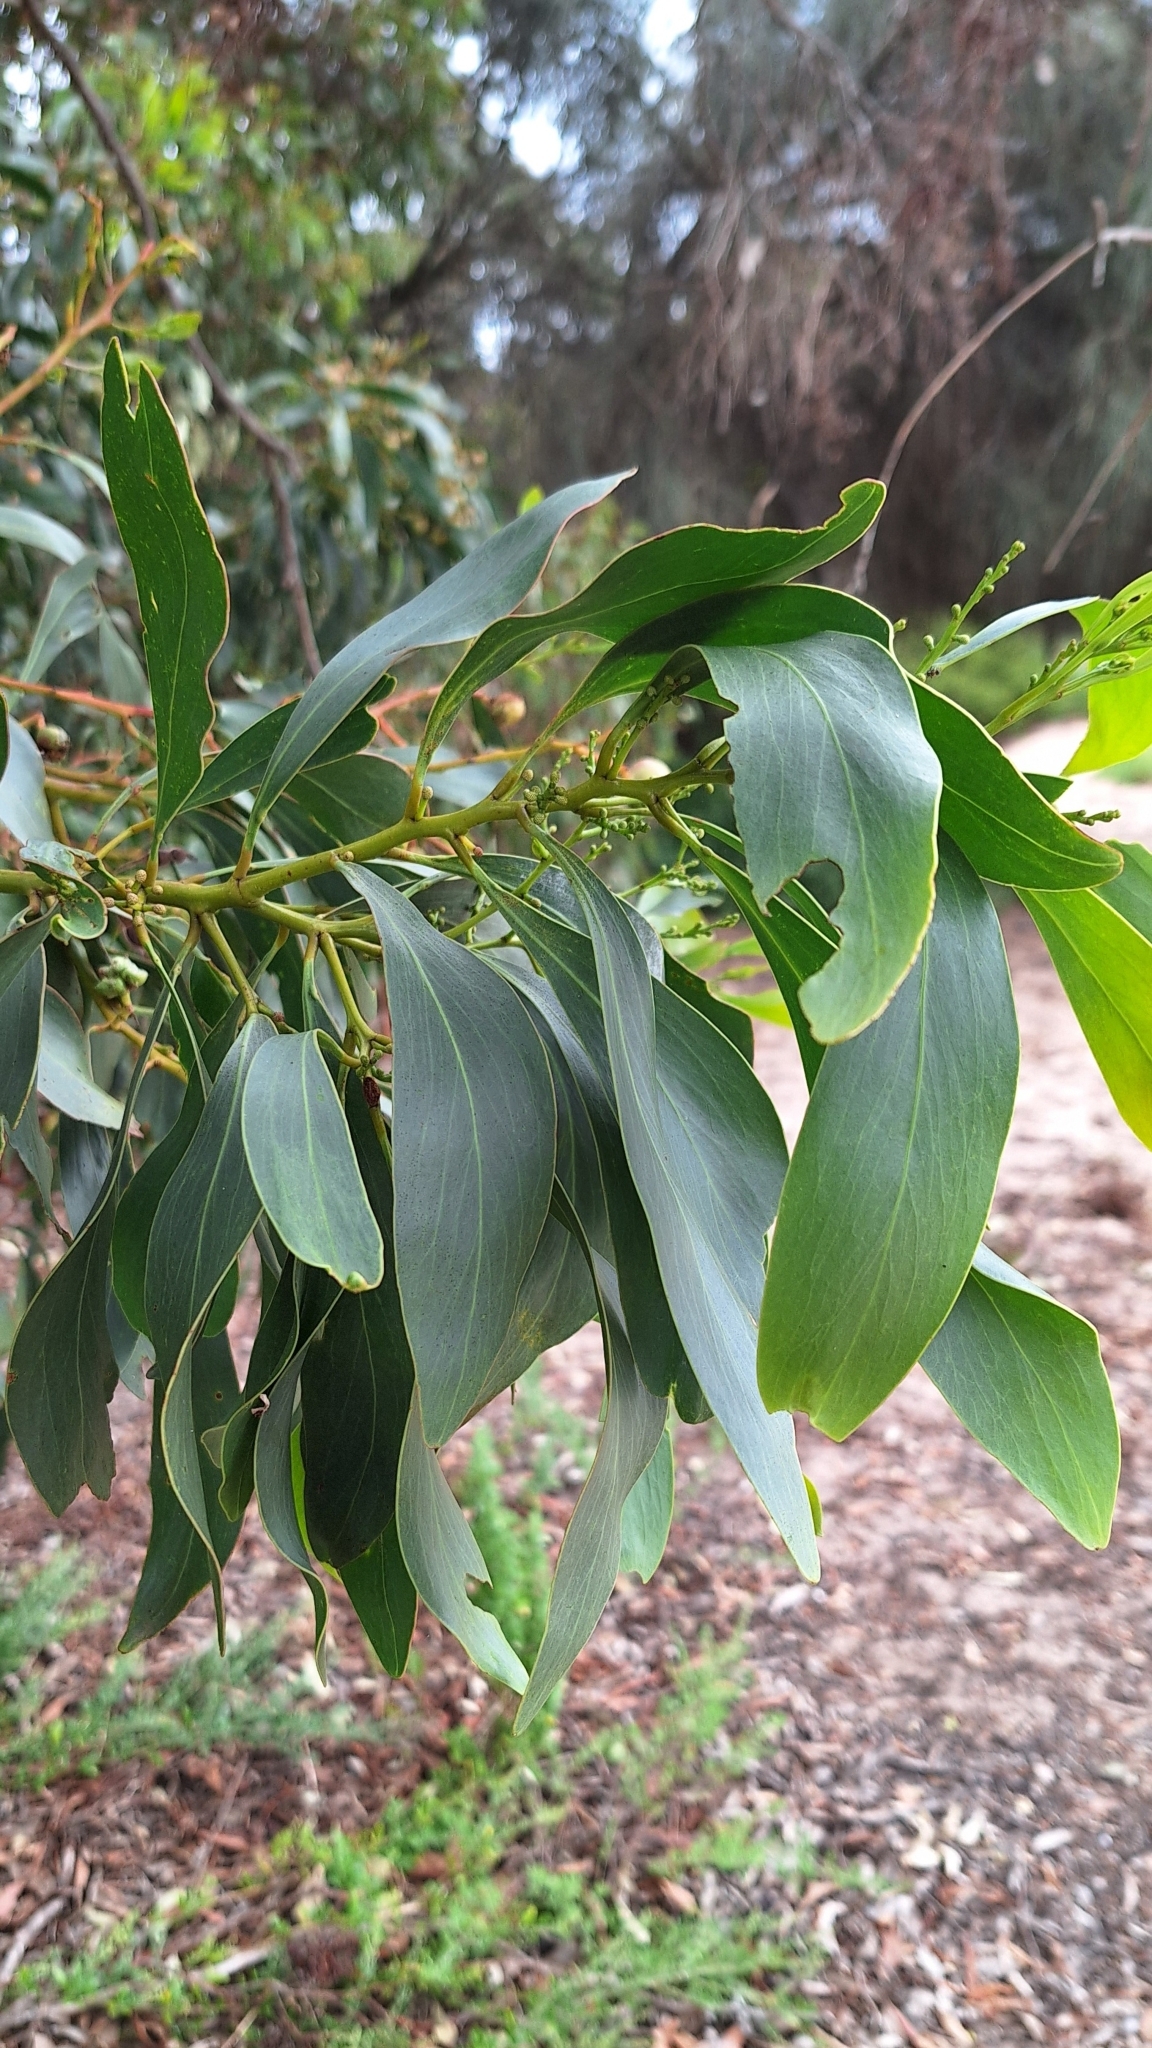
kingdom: Plantae
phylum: Tracheophyta
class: Magnoliopsida
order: Fabales
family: Fabaceae
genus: Acacia
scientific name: Acacia pycnantha
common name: Golden wattle
